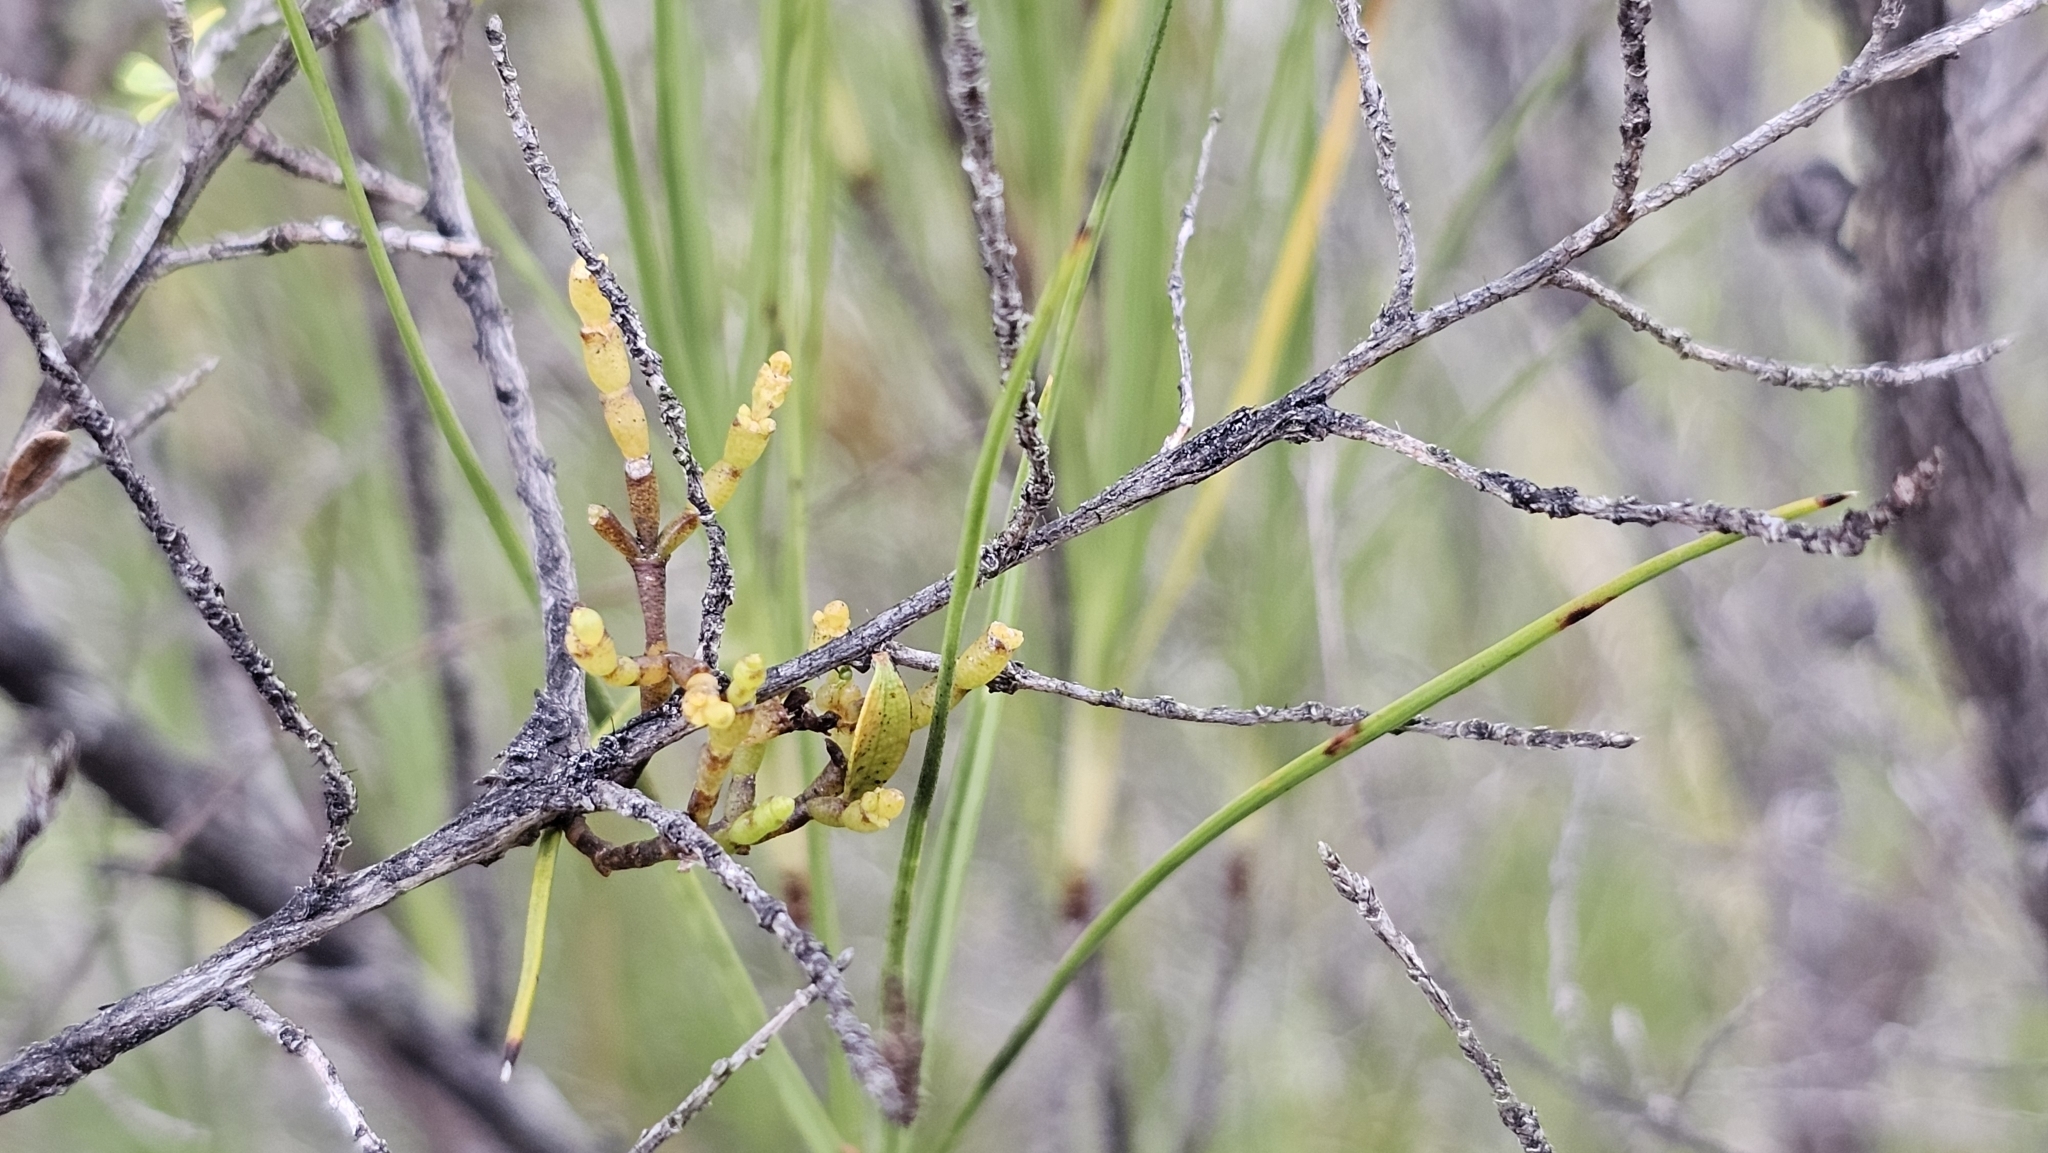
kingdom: Plantae
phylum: Tracheophyta
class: Magnoliopsida
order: Santalales
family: Viscaceae
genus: Korthalsella
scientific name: Korthalsella salicornioides
